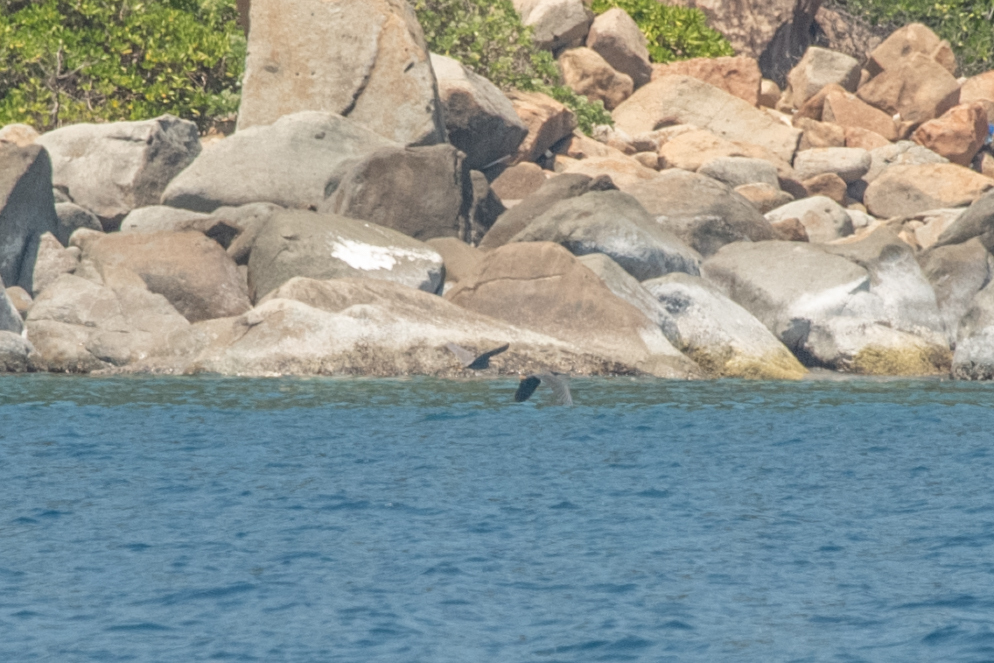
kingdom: Animalia
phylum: Chordata
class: Aves
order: Pelecaniformes
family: Ardeidae
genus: Egretta
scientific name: Egretta sacra
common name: Pacific reef heron
